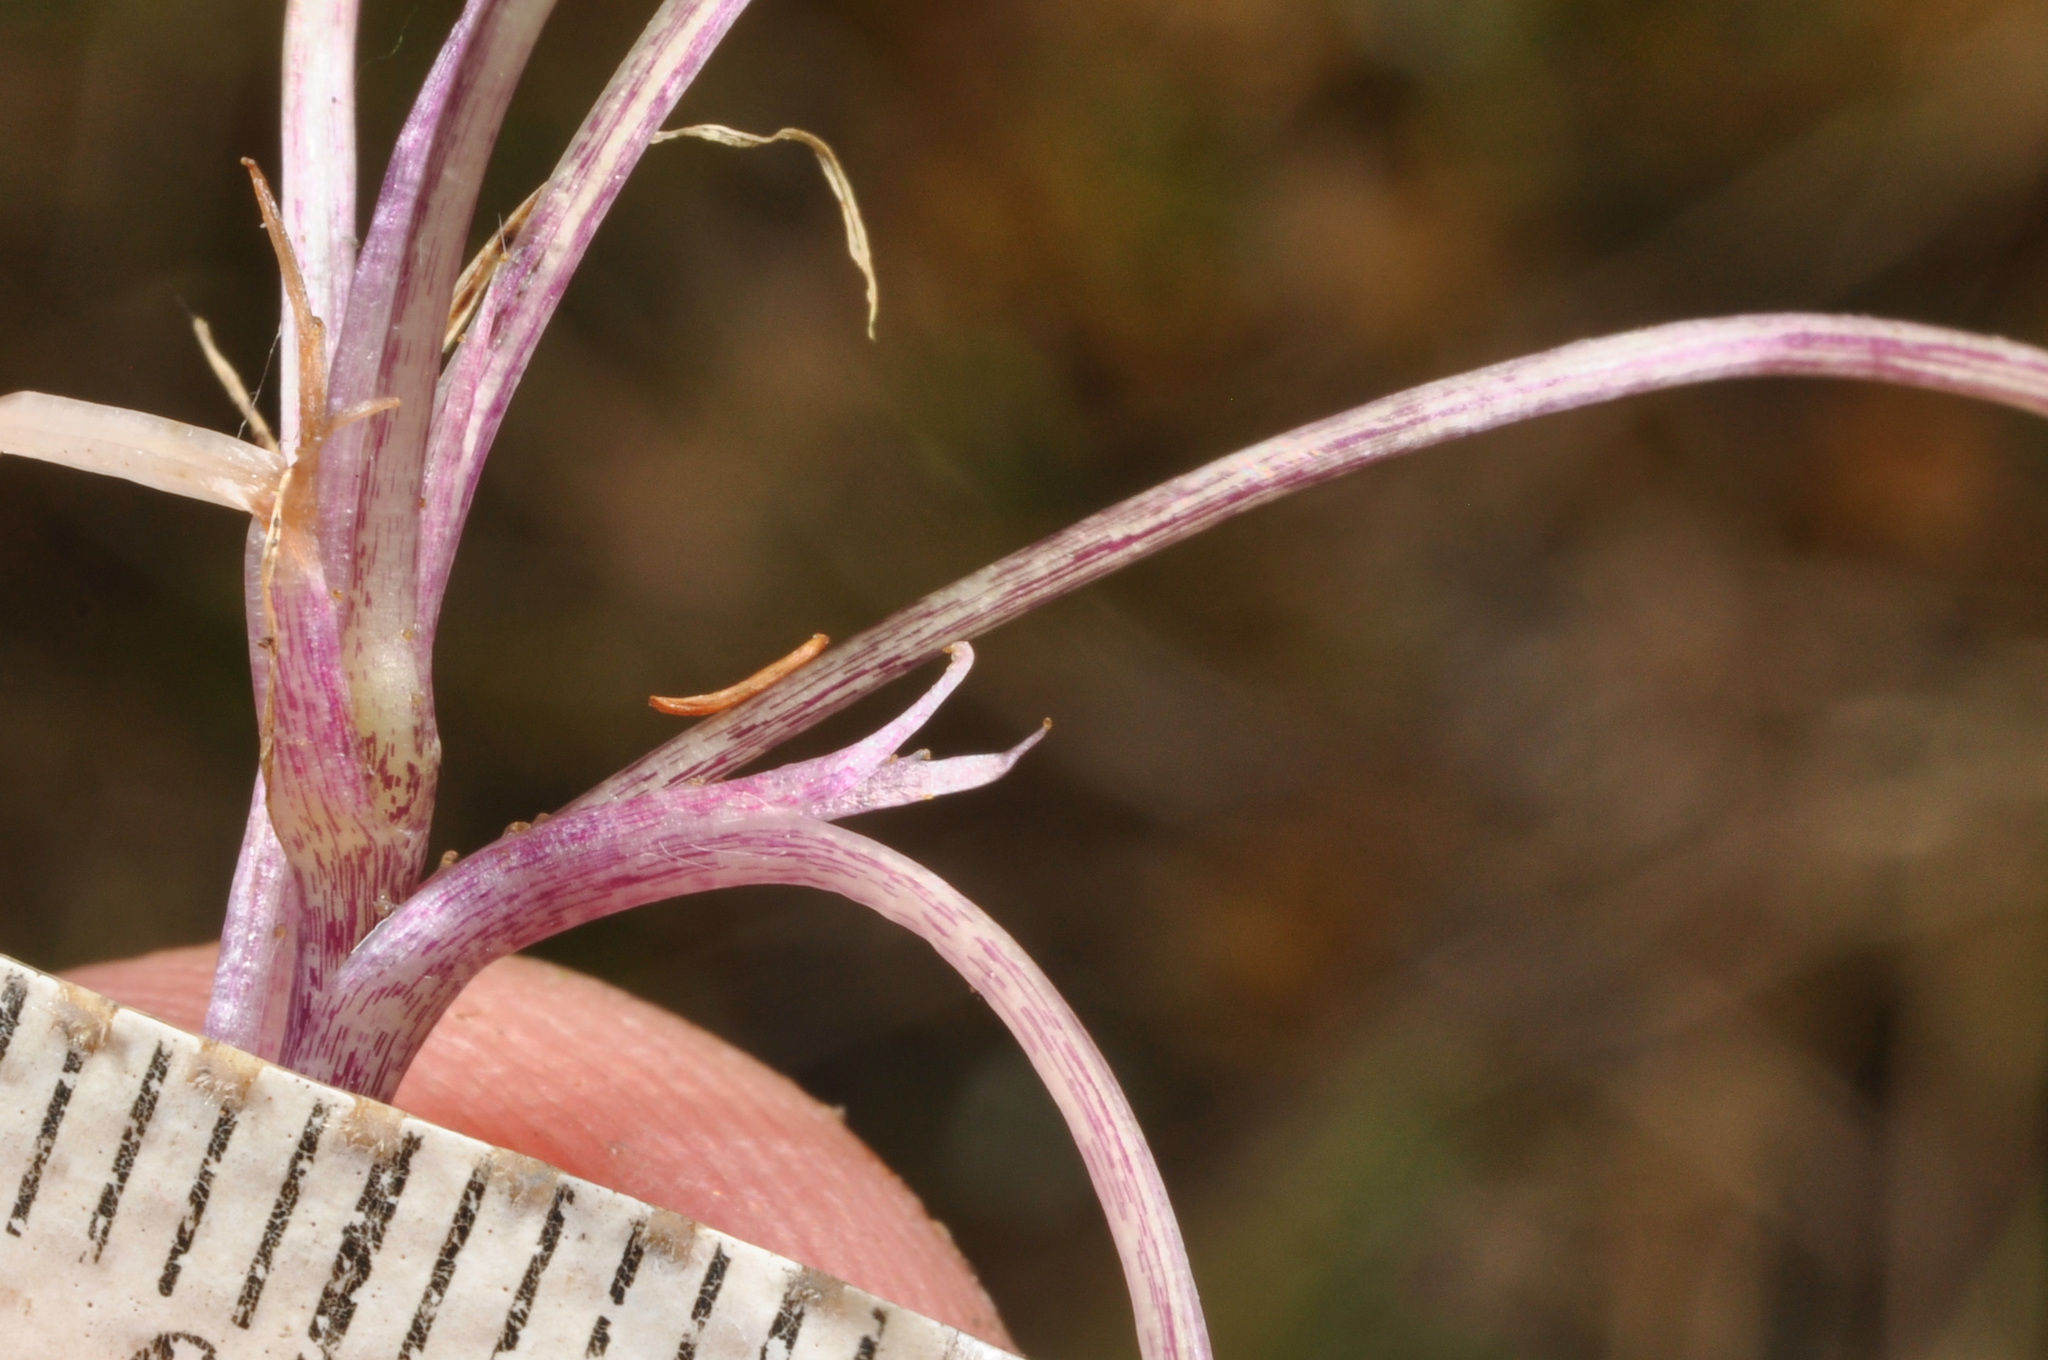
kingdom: Plantae
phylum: Tracheophyta
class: Magnoliopsida
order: Malpighiales
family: Violaceae
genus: Viola
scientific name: Viola cunninghamii
